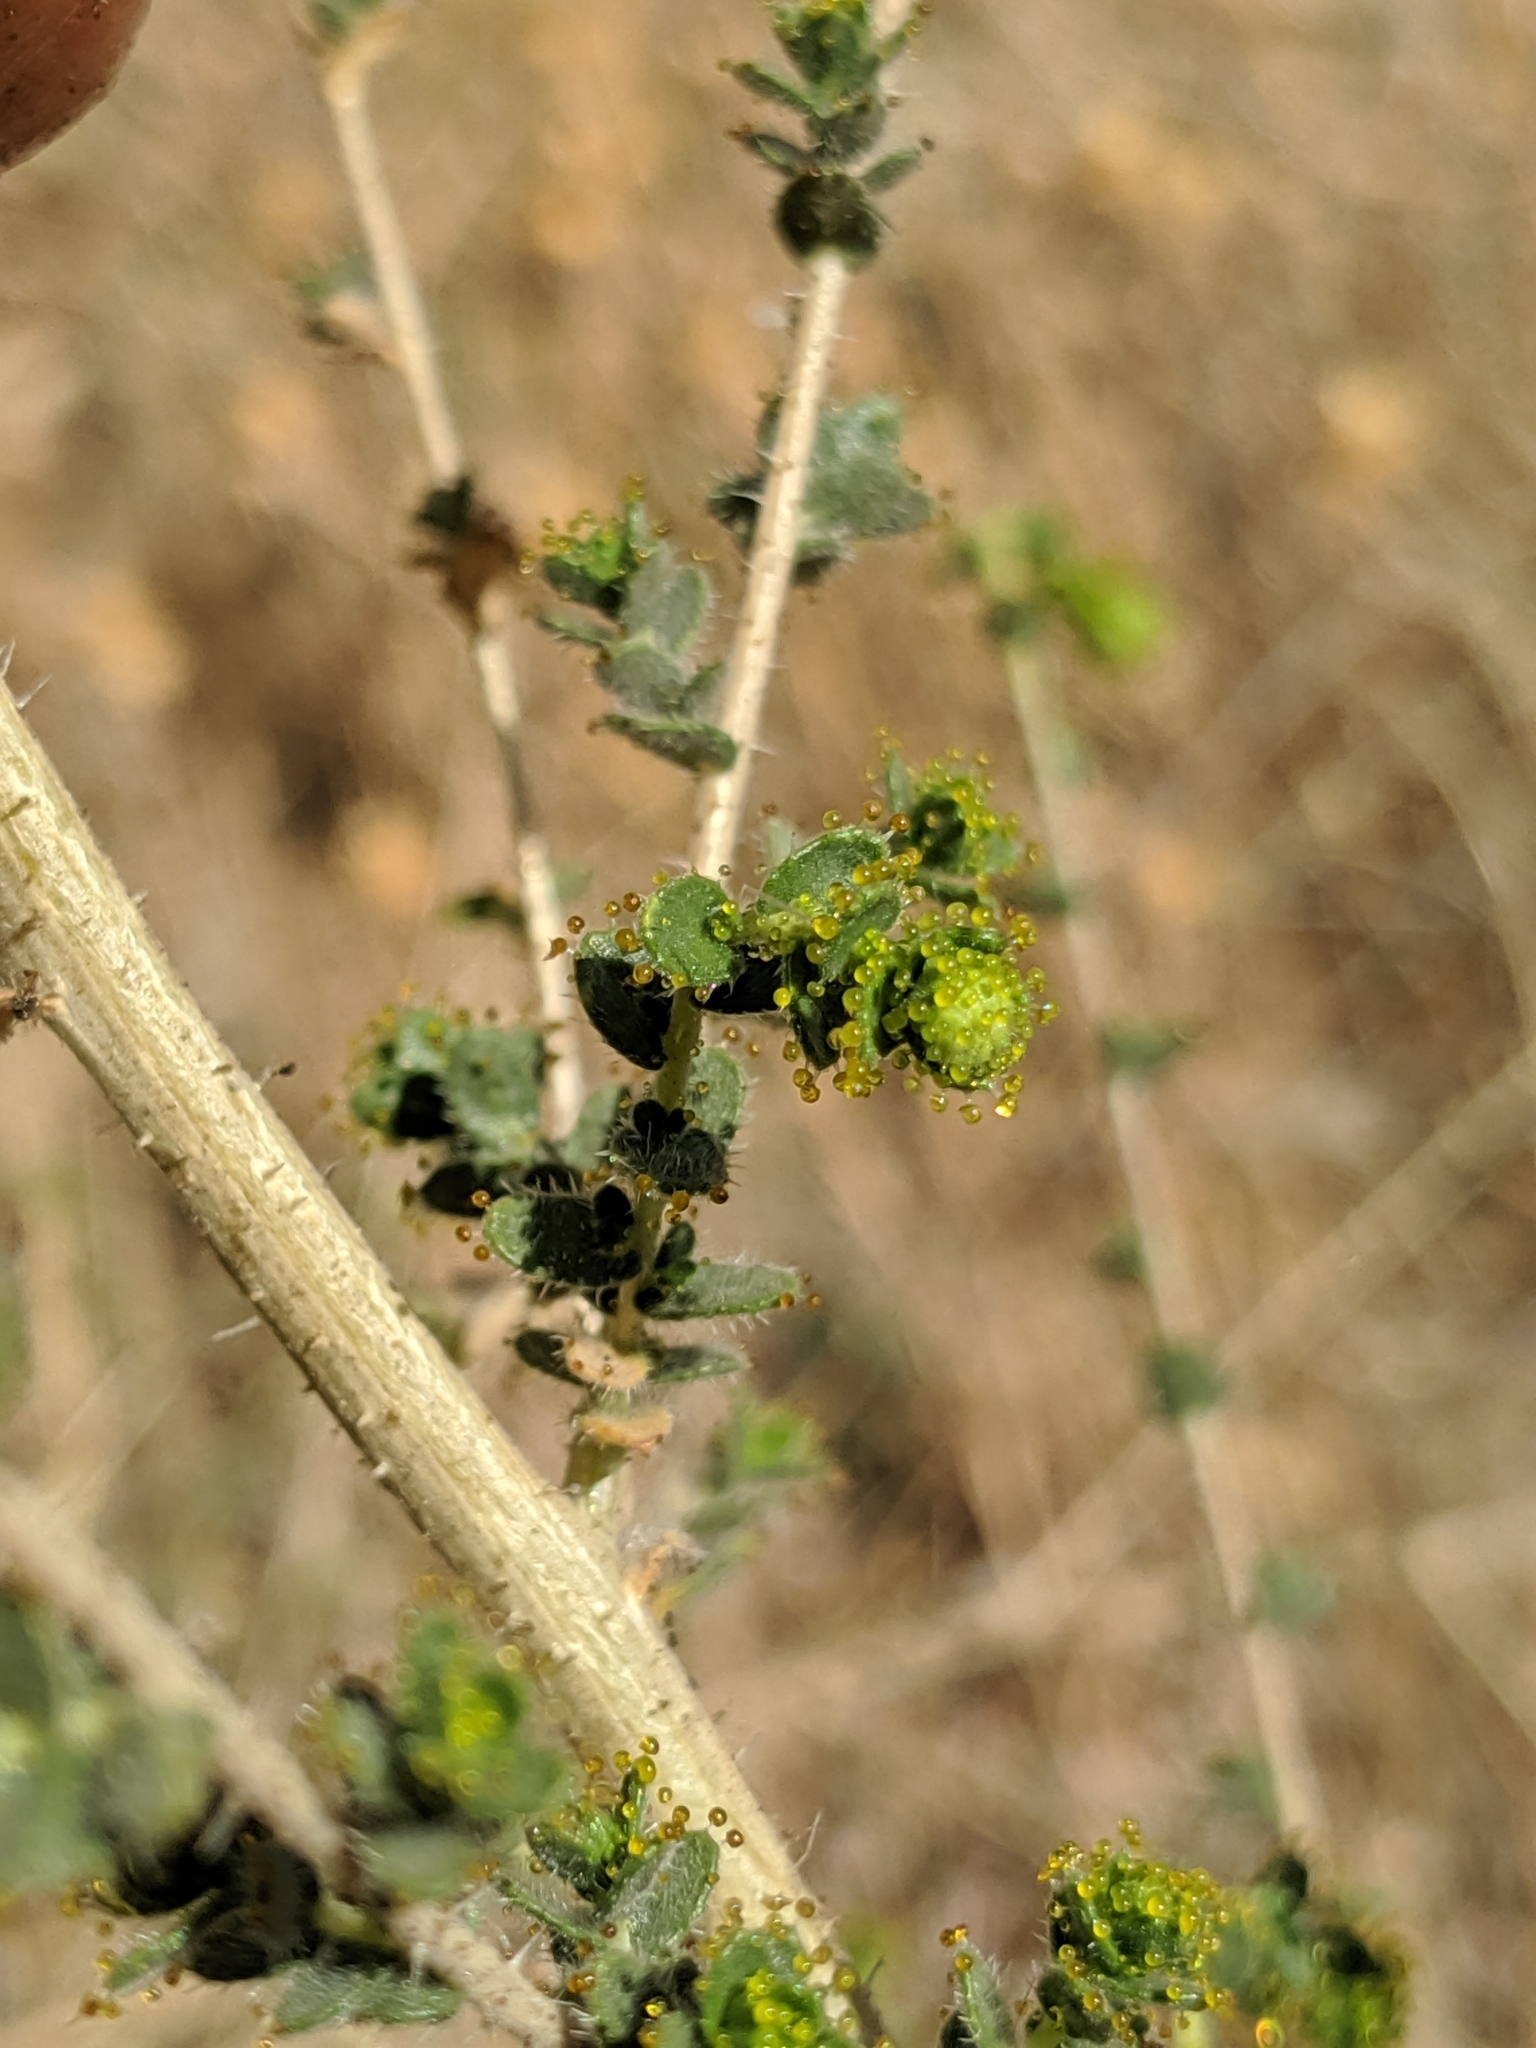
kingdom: Plantae
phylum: Tracheophyta
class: Magnoliopsida
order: Asterales
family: Asteraceae
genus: Blepharizonia
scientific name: Blepharizonia laxa
